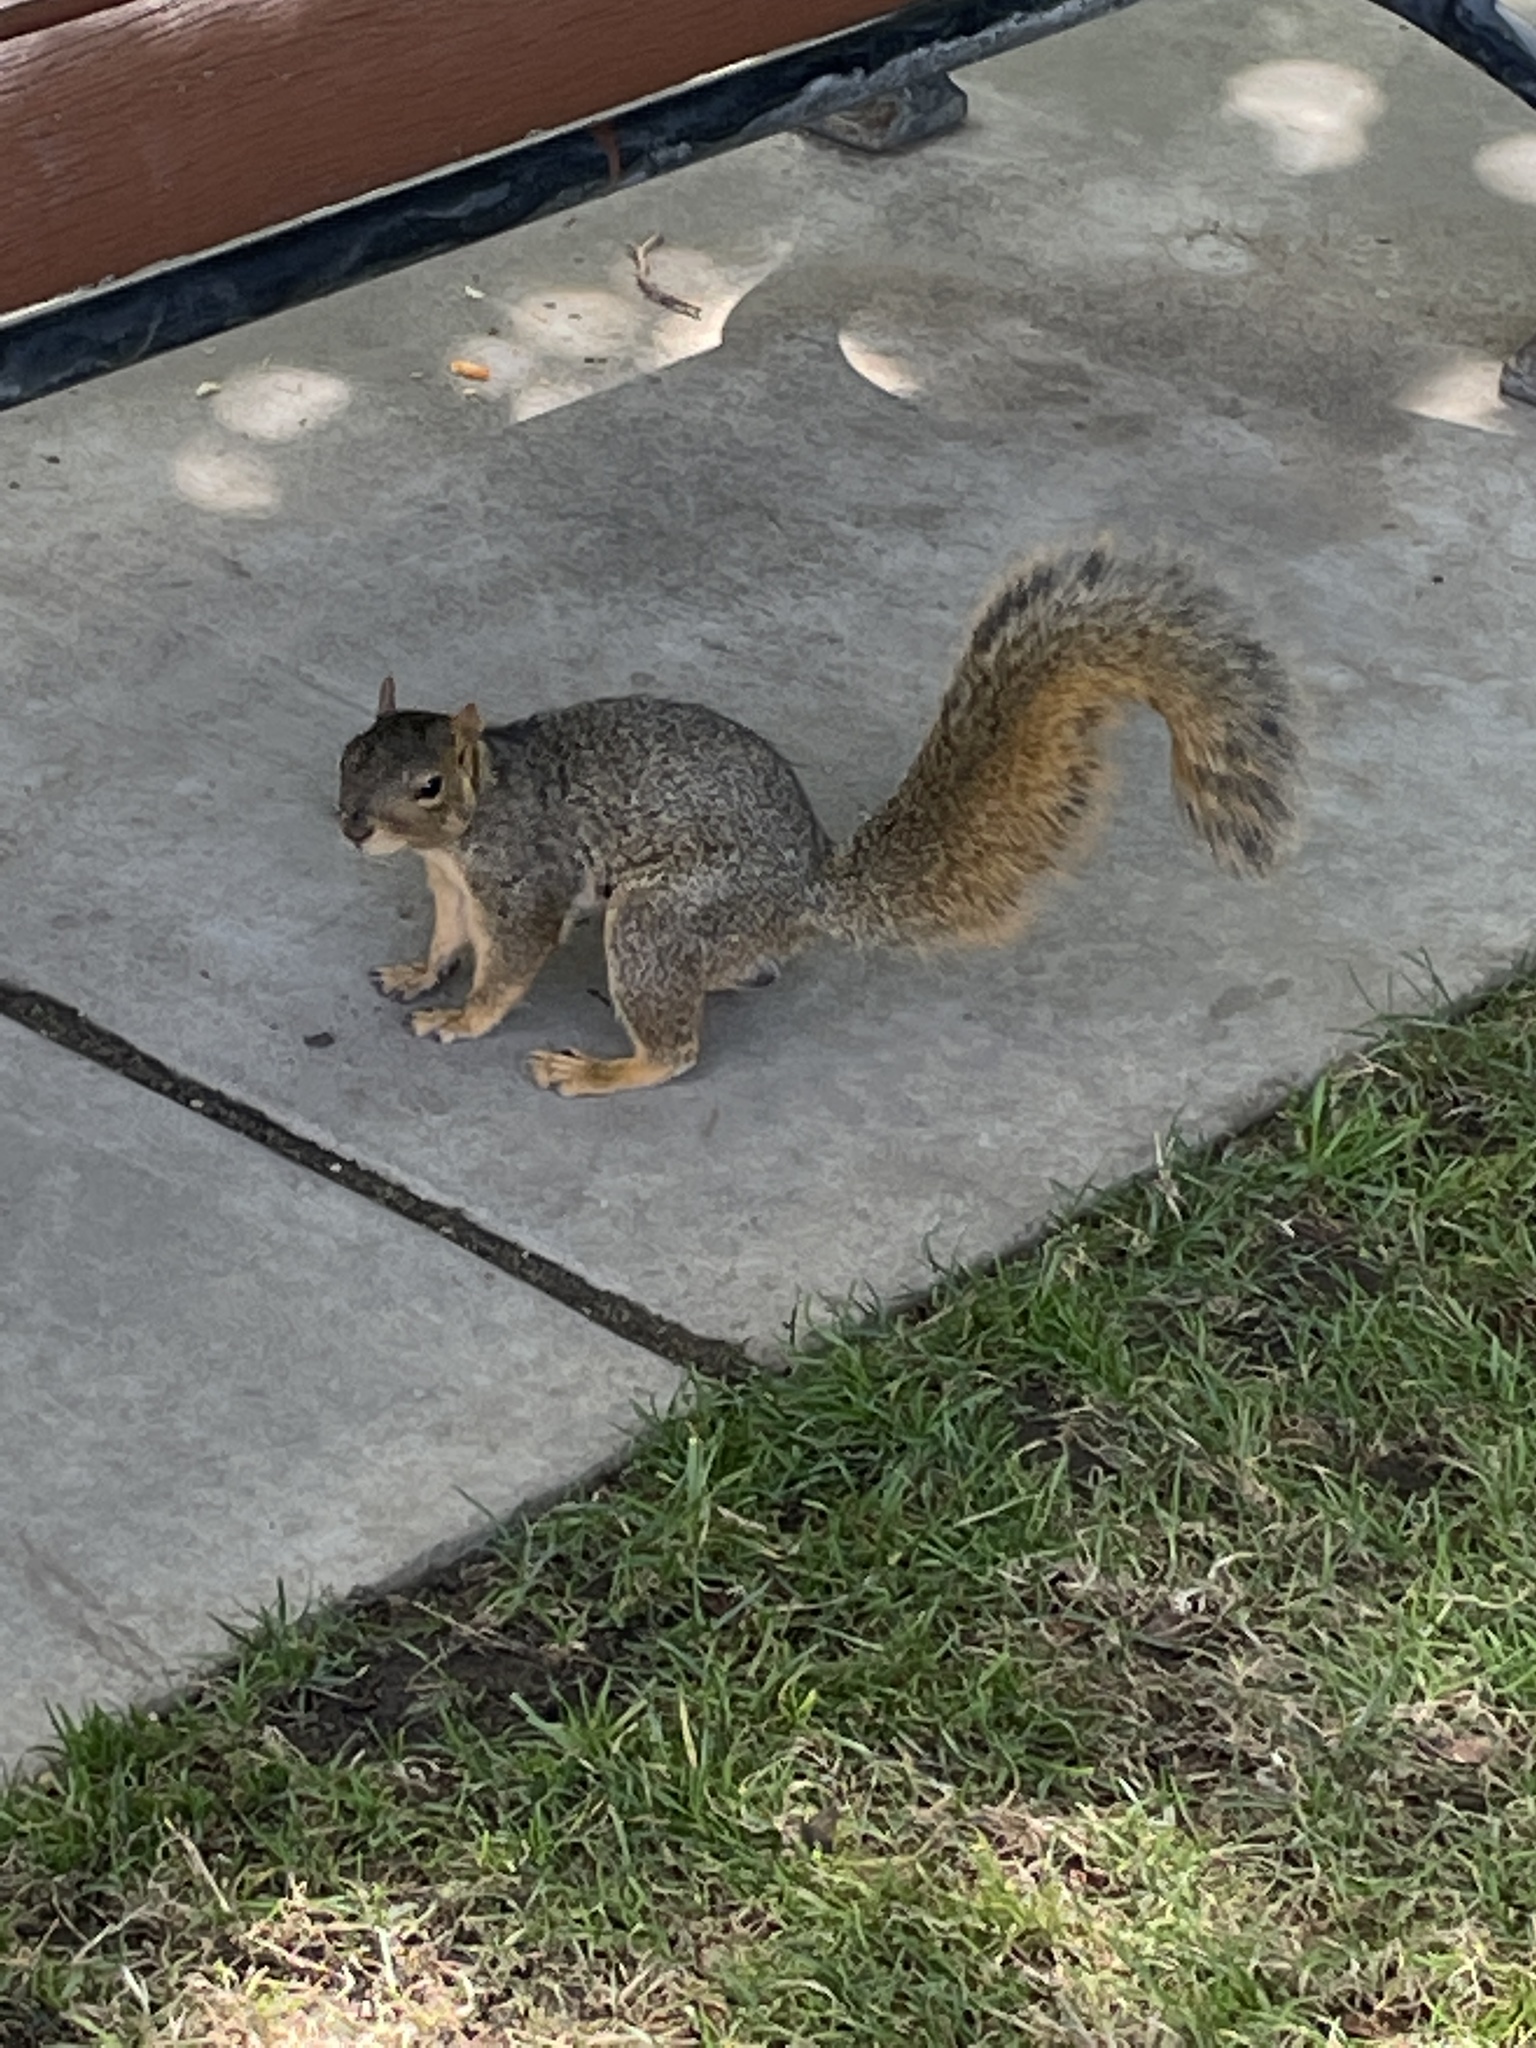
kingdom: Animalia
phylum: Chordata
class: Mammalia
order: Rodentia
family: Sciuridae
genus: Sciurus
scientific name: Sciurus niger
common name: Fox squirrel
